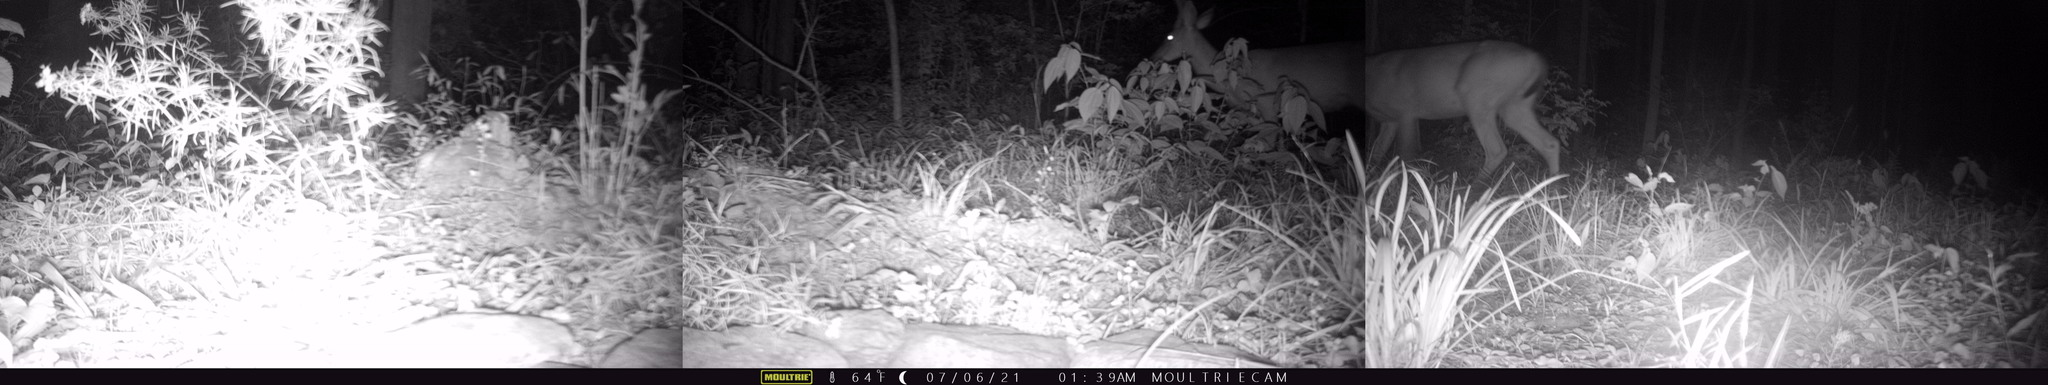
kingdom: Animalia
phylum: Chordata
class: Mammalia
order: Artiodactyla
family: Cervidae
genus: Odocoileus
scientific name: Odocoileus virginianus
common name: White-tailed deer
